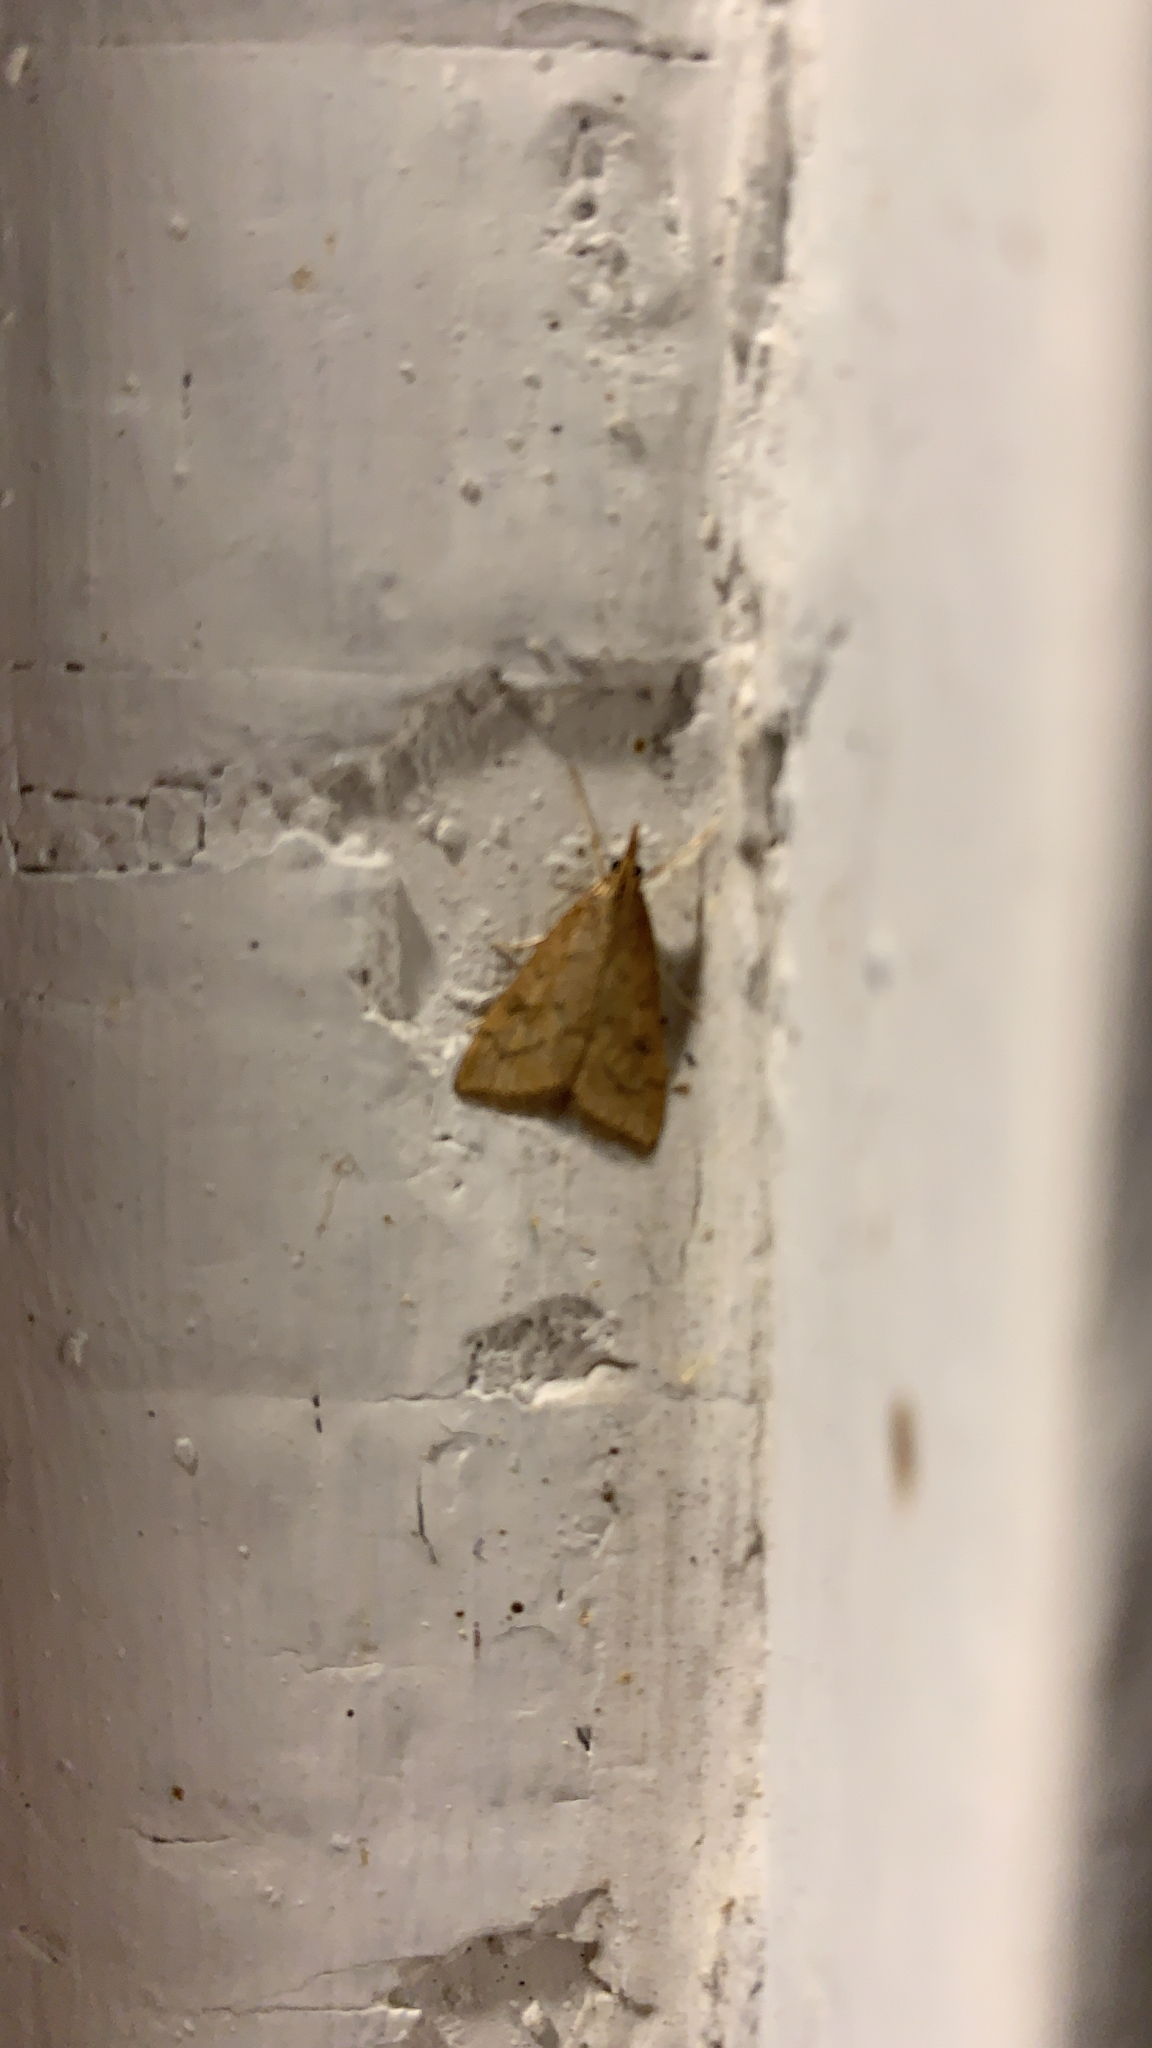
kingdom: Animalia
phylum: Arthropoda
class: Insecta
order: Lepidoptera
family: Crambidae
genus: Udea
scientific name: Udea rubigalis
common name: Celery leaftier moth
